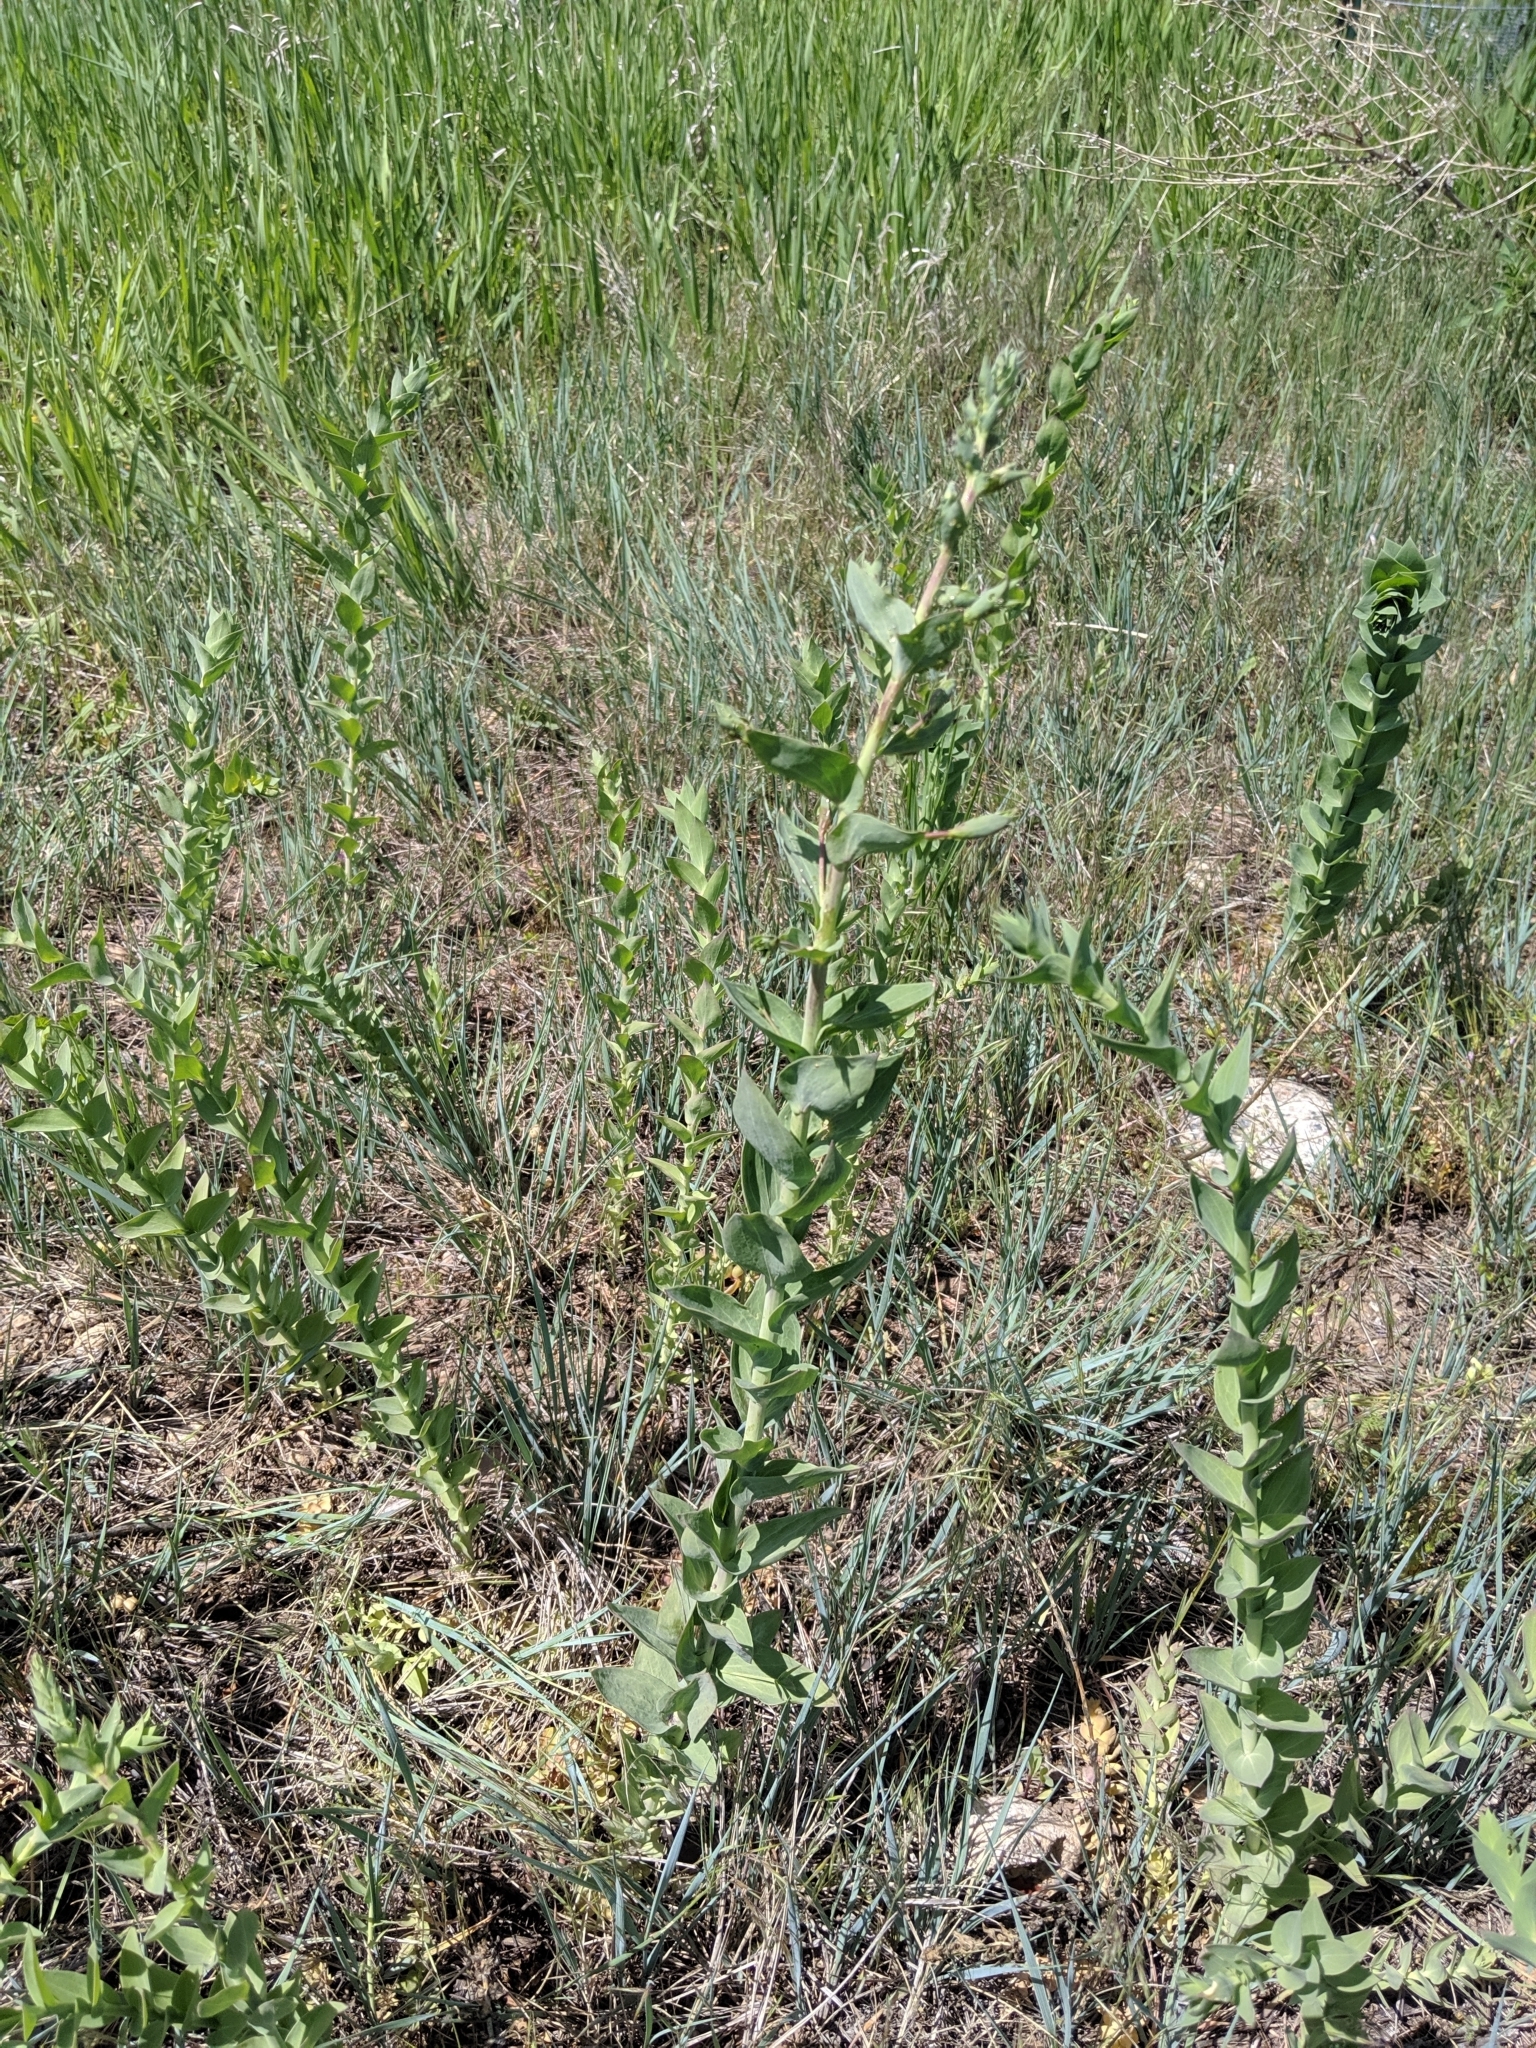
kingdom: Plantae
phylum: Tracheophyta
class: Magnoliopsida
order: Lamiales
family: Plantaginaceae
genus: Linaria
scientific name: Linaria dalmatica
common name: Dalmatian toadflax
